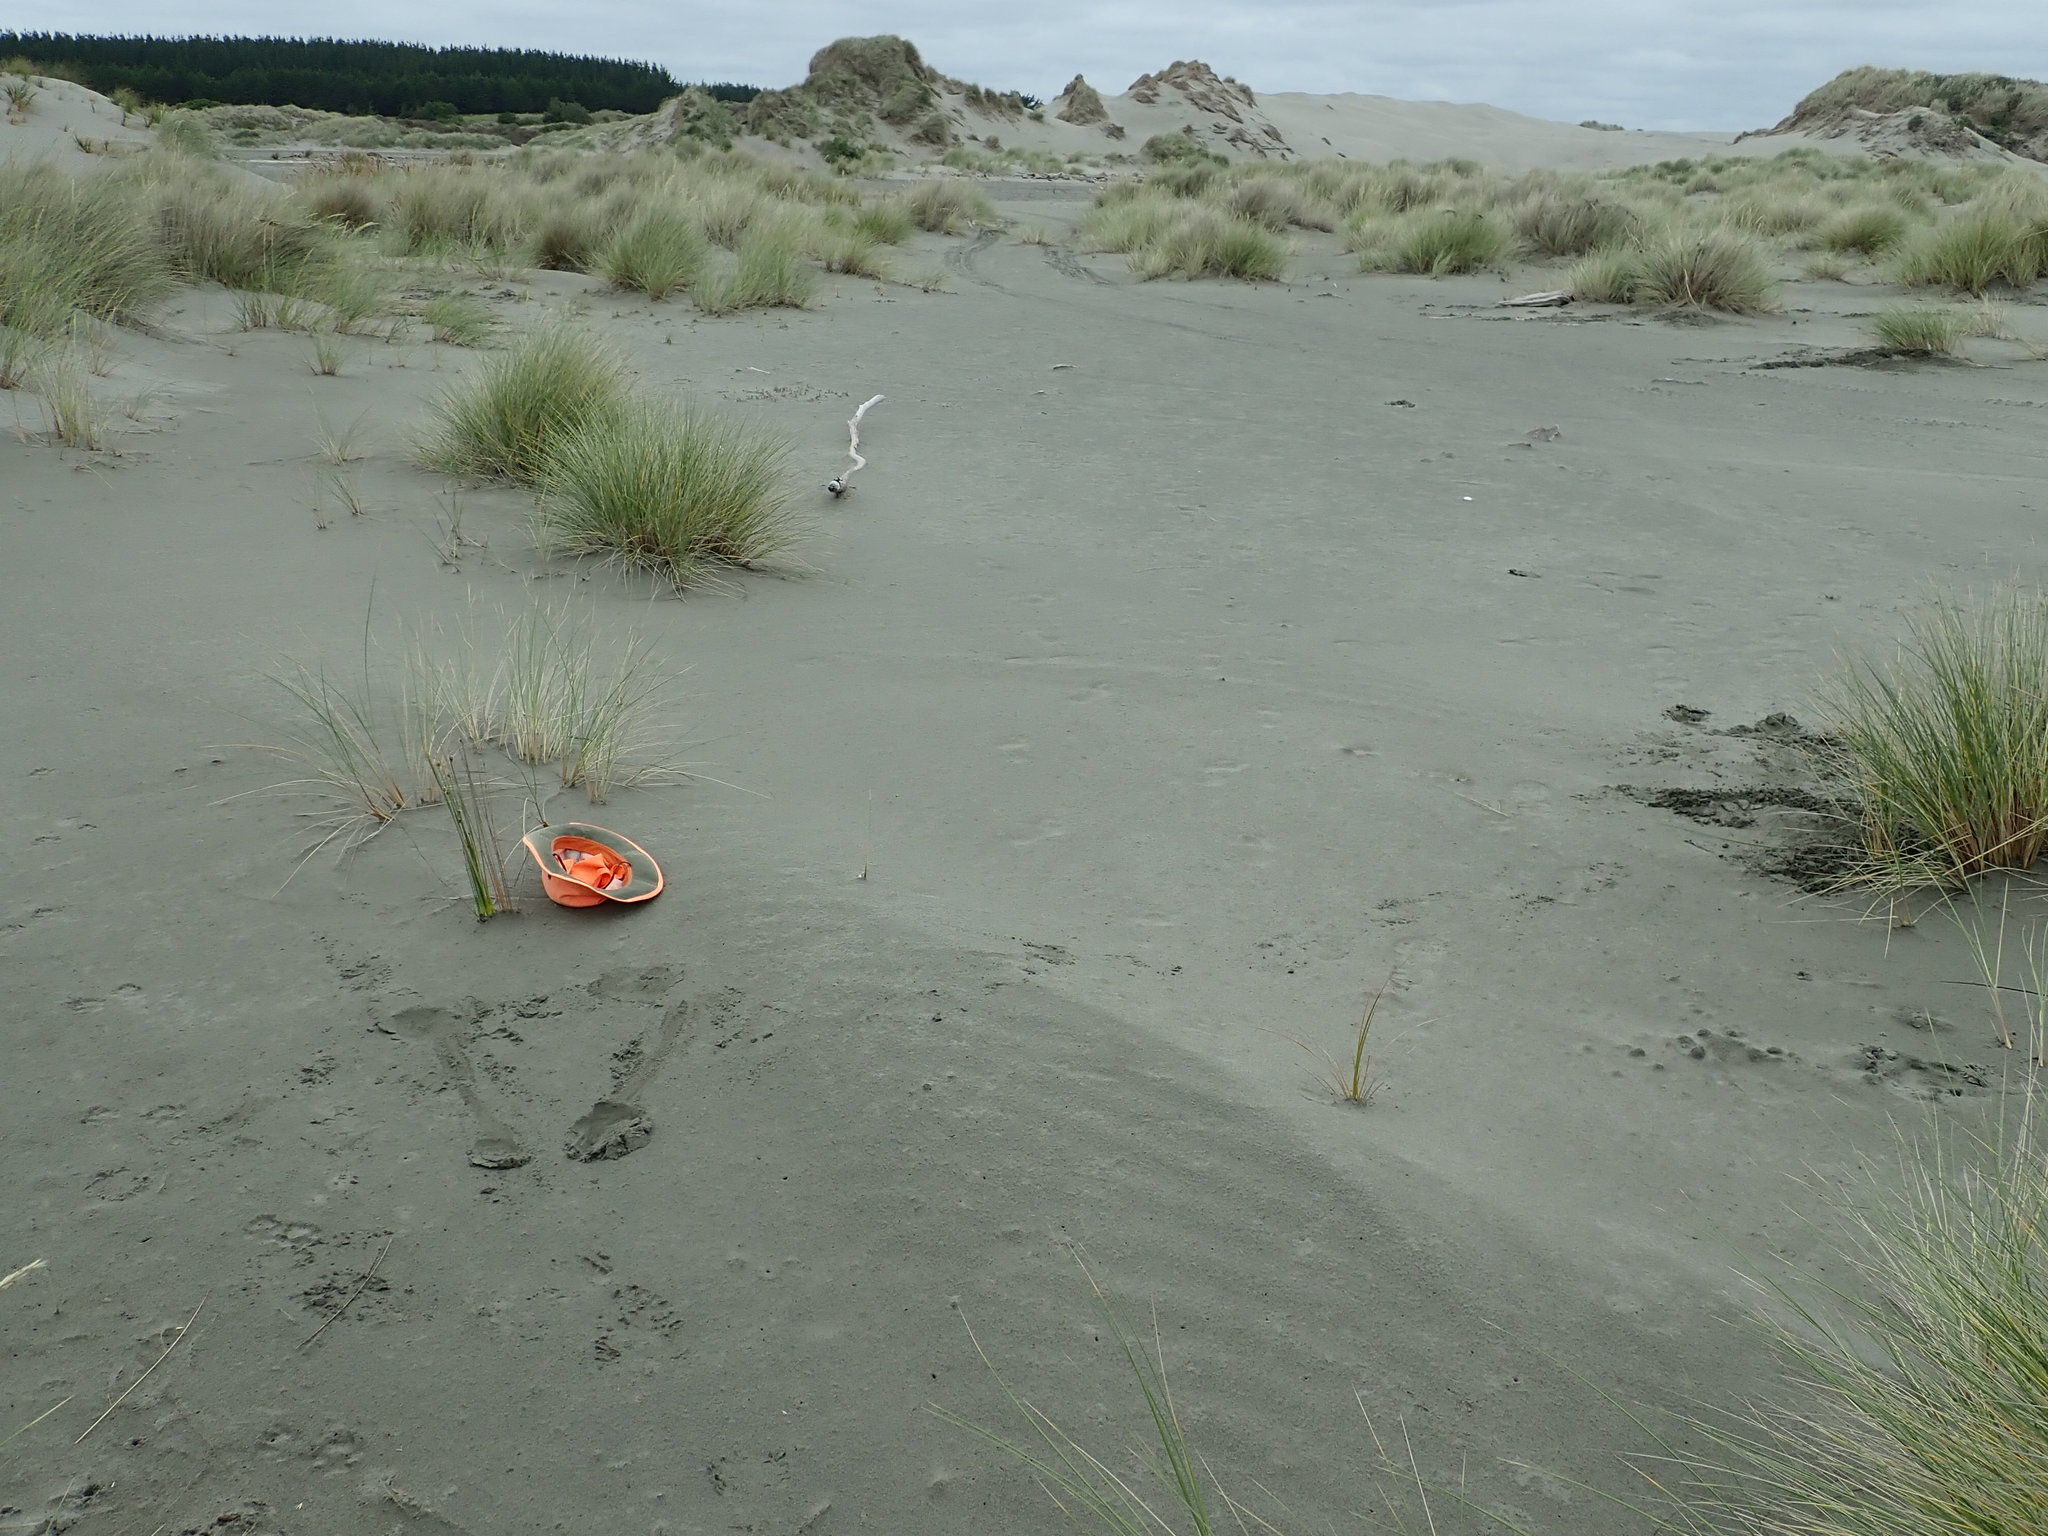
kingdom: Plantae
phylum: Tracheophyta
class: Liliopsida
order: Poales
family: Cyperaceae
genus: Ficinia
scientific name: Ficinia nodosa
